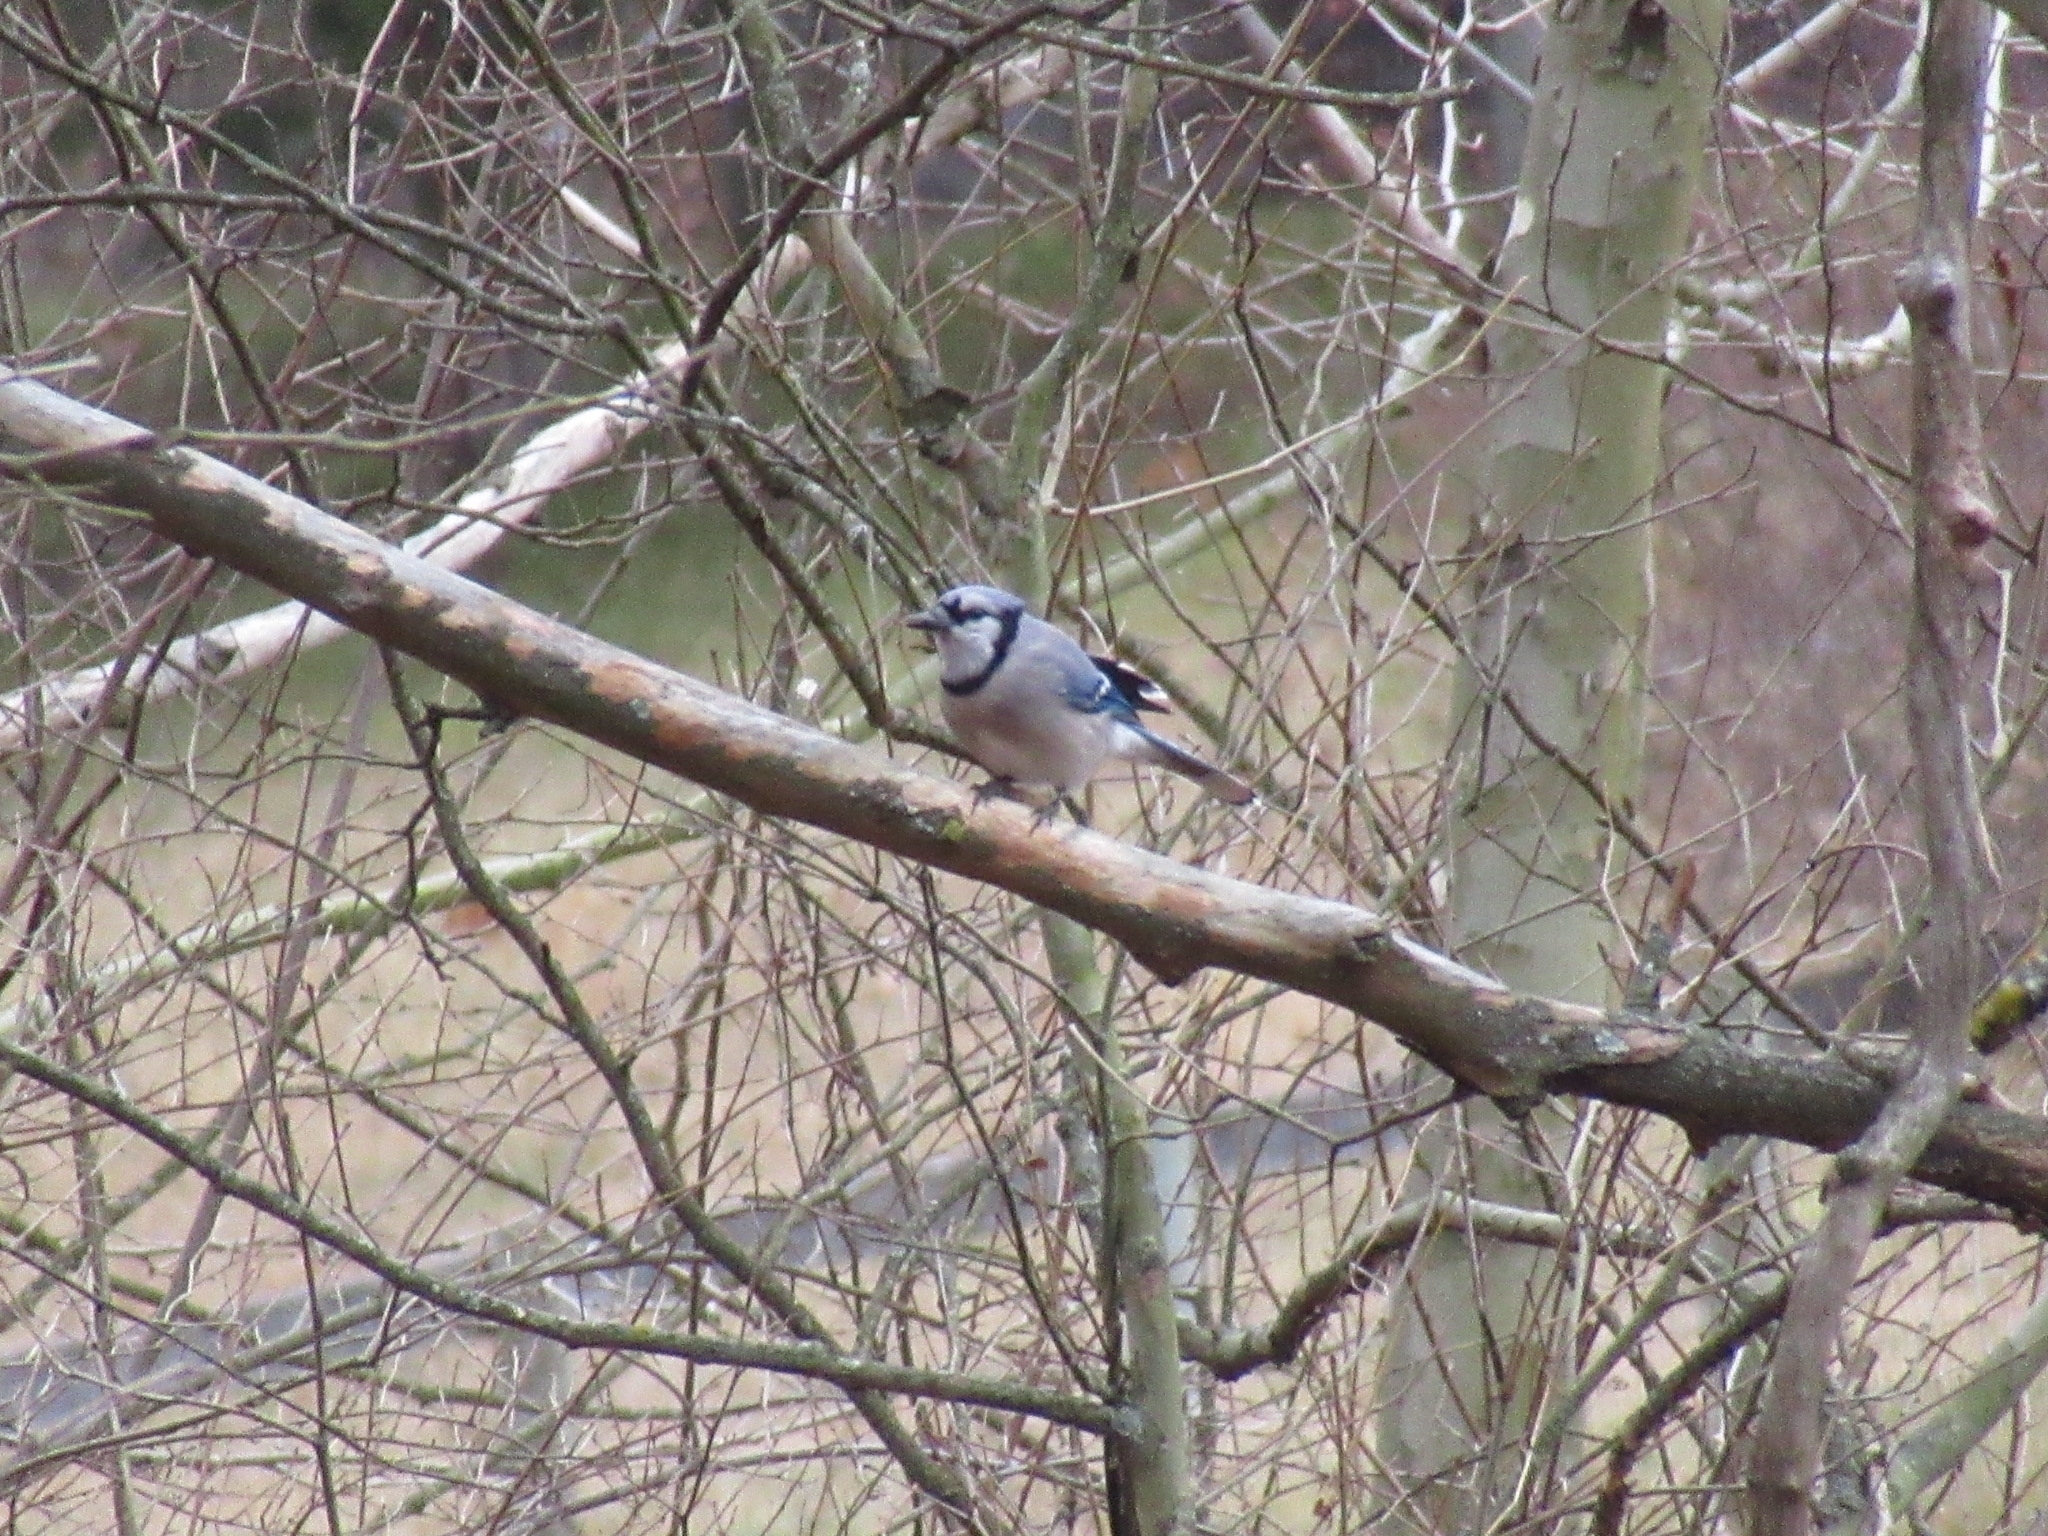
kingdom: Animalia
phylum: Chordata
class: Aves
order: Passeriformes
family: Corvidae
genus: Cyanocitta
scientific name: Cyanocitta cristata
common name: Blue jay
